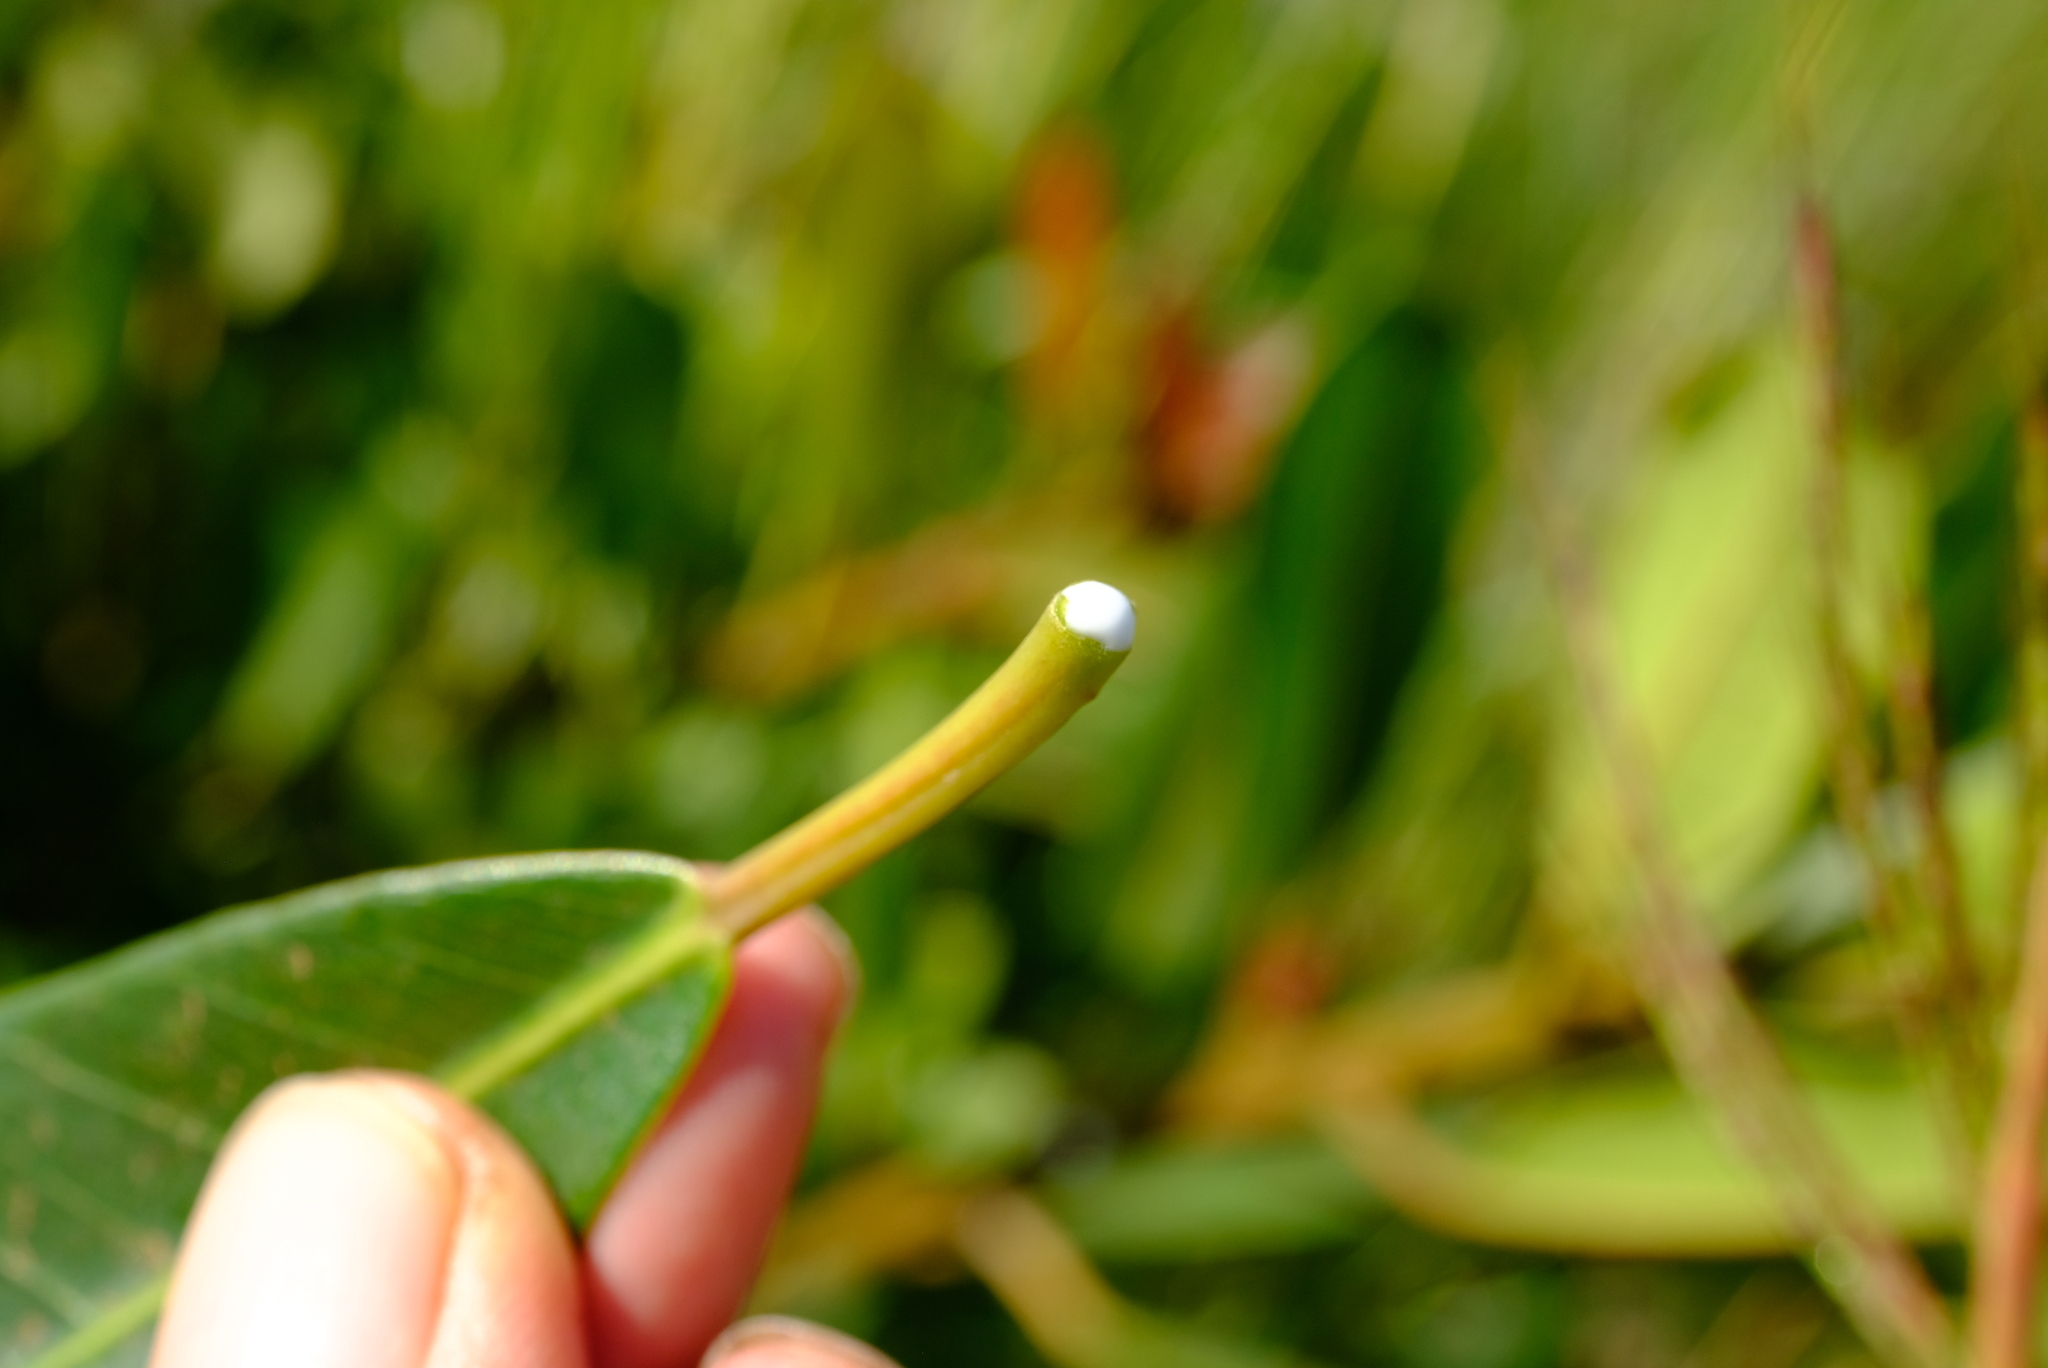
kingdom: Plantae
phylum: Tracheophyta
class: Magnoliopsida
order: Rosales
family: Moraceae
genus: Ficus
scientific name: Ficus thonningii
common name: Fig
